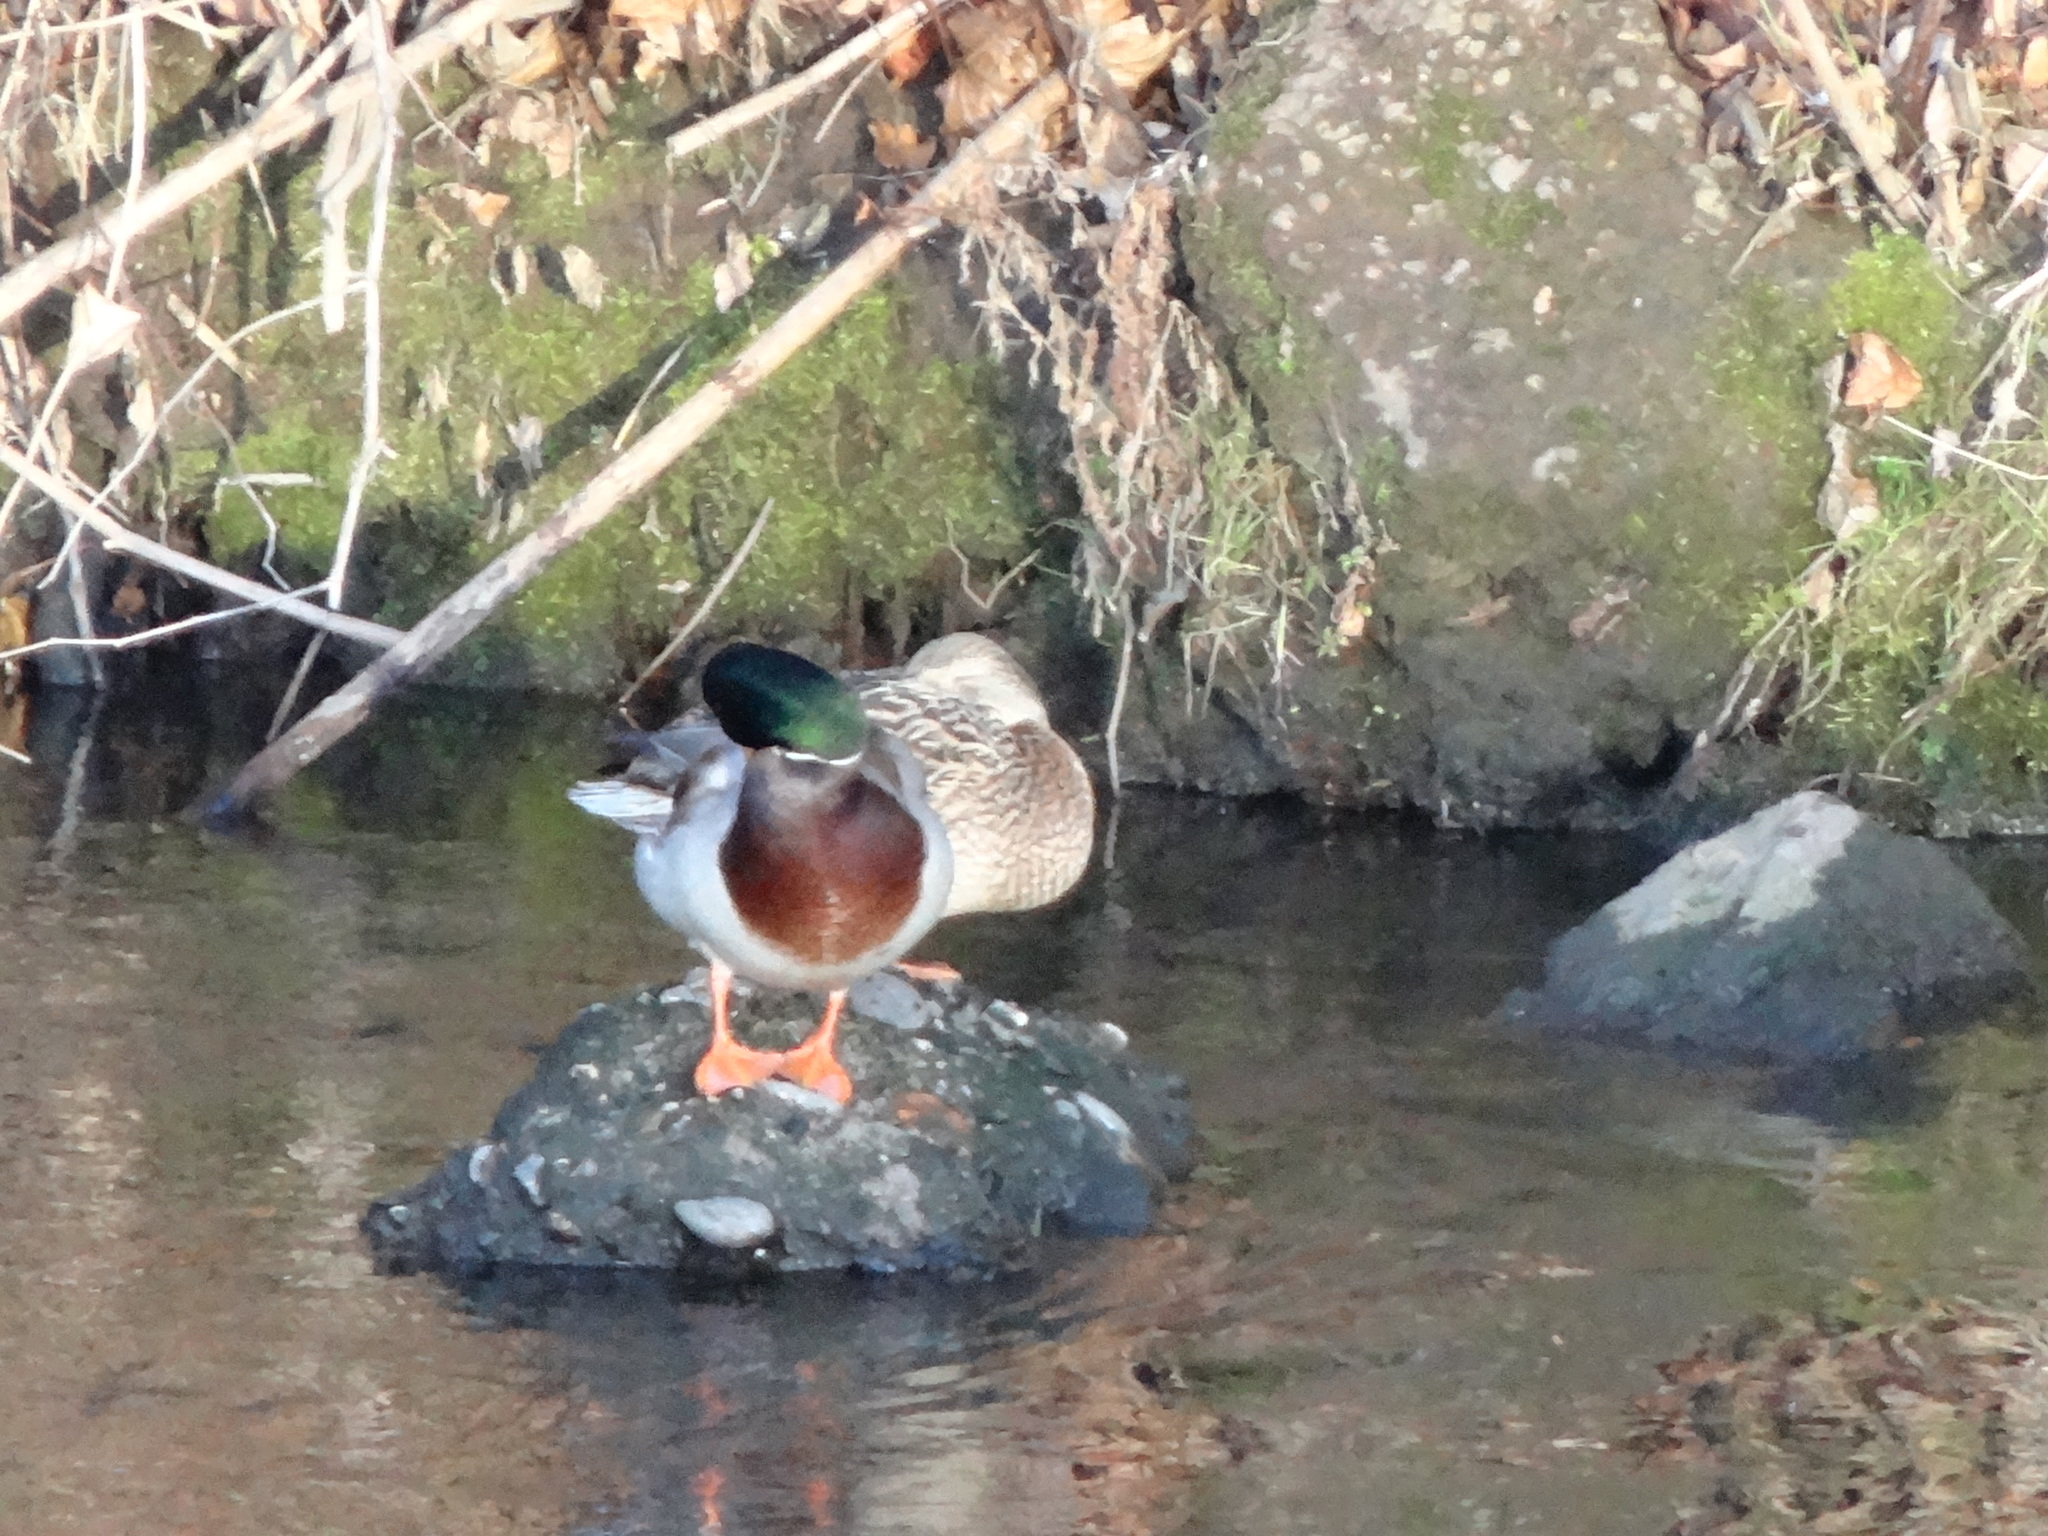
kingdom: Animalia
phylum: Chordata
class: Aves
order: Anseriformes
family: Anatidae
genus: Anas
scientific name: Anas platyrhynchos
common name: Mallard
